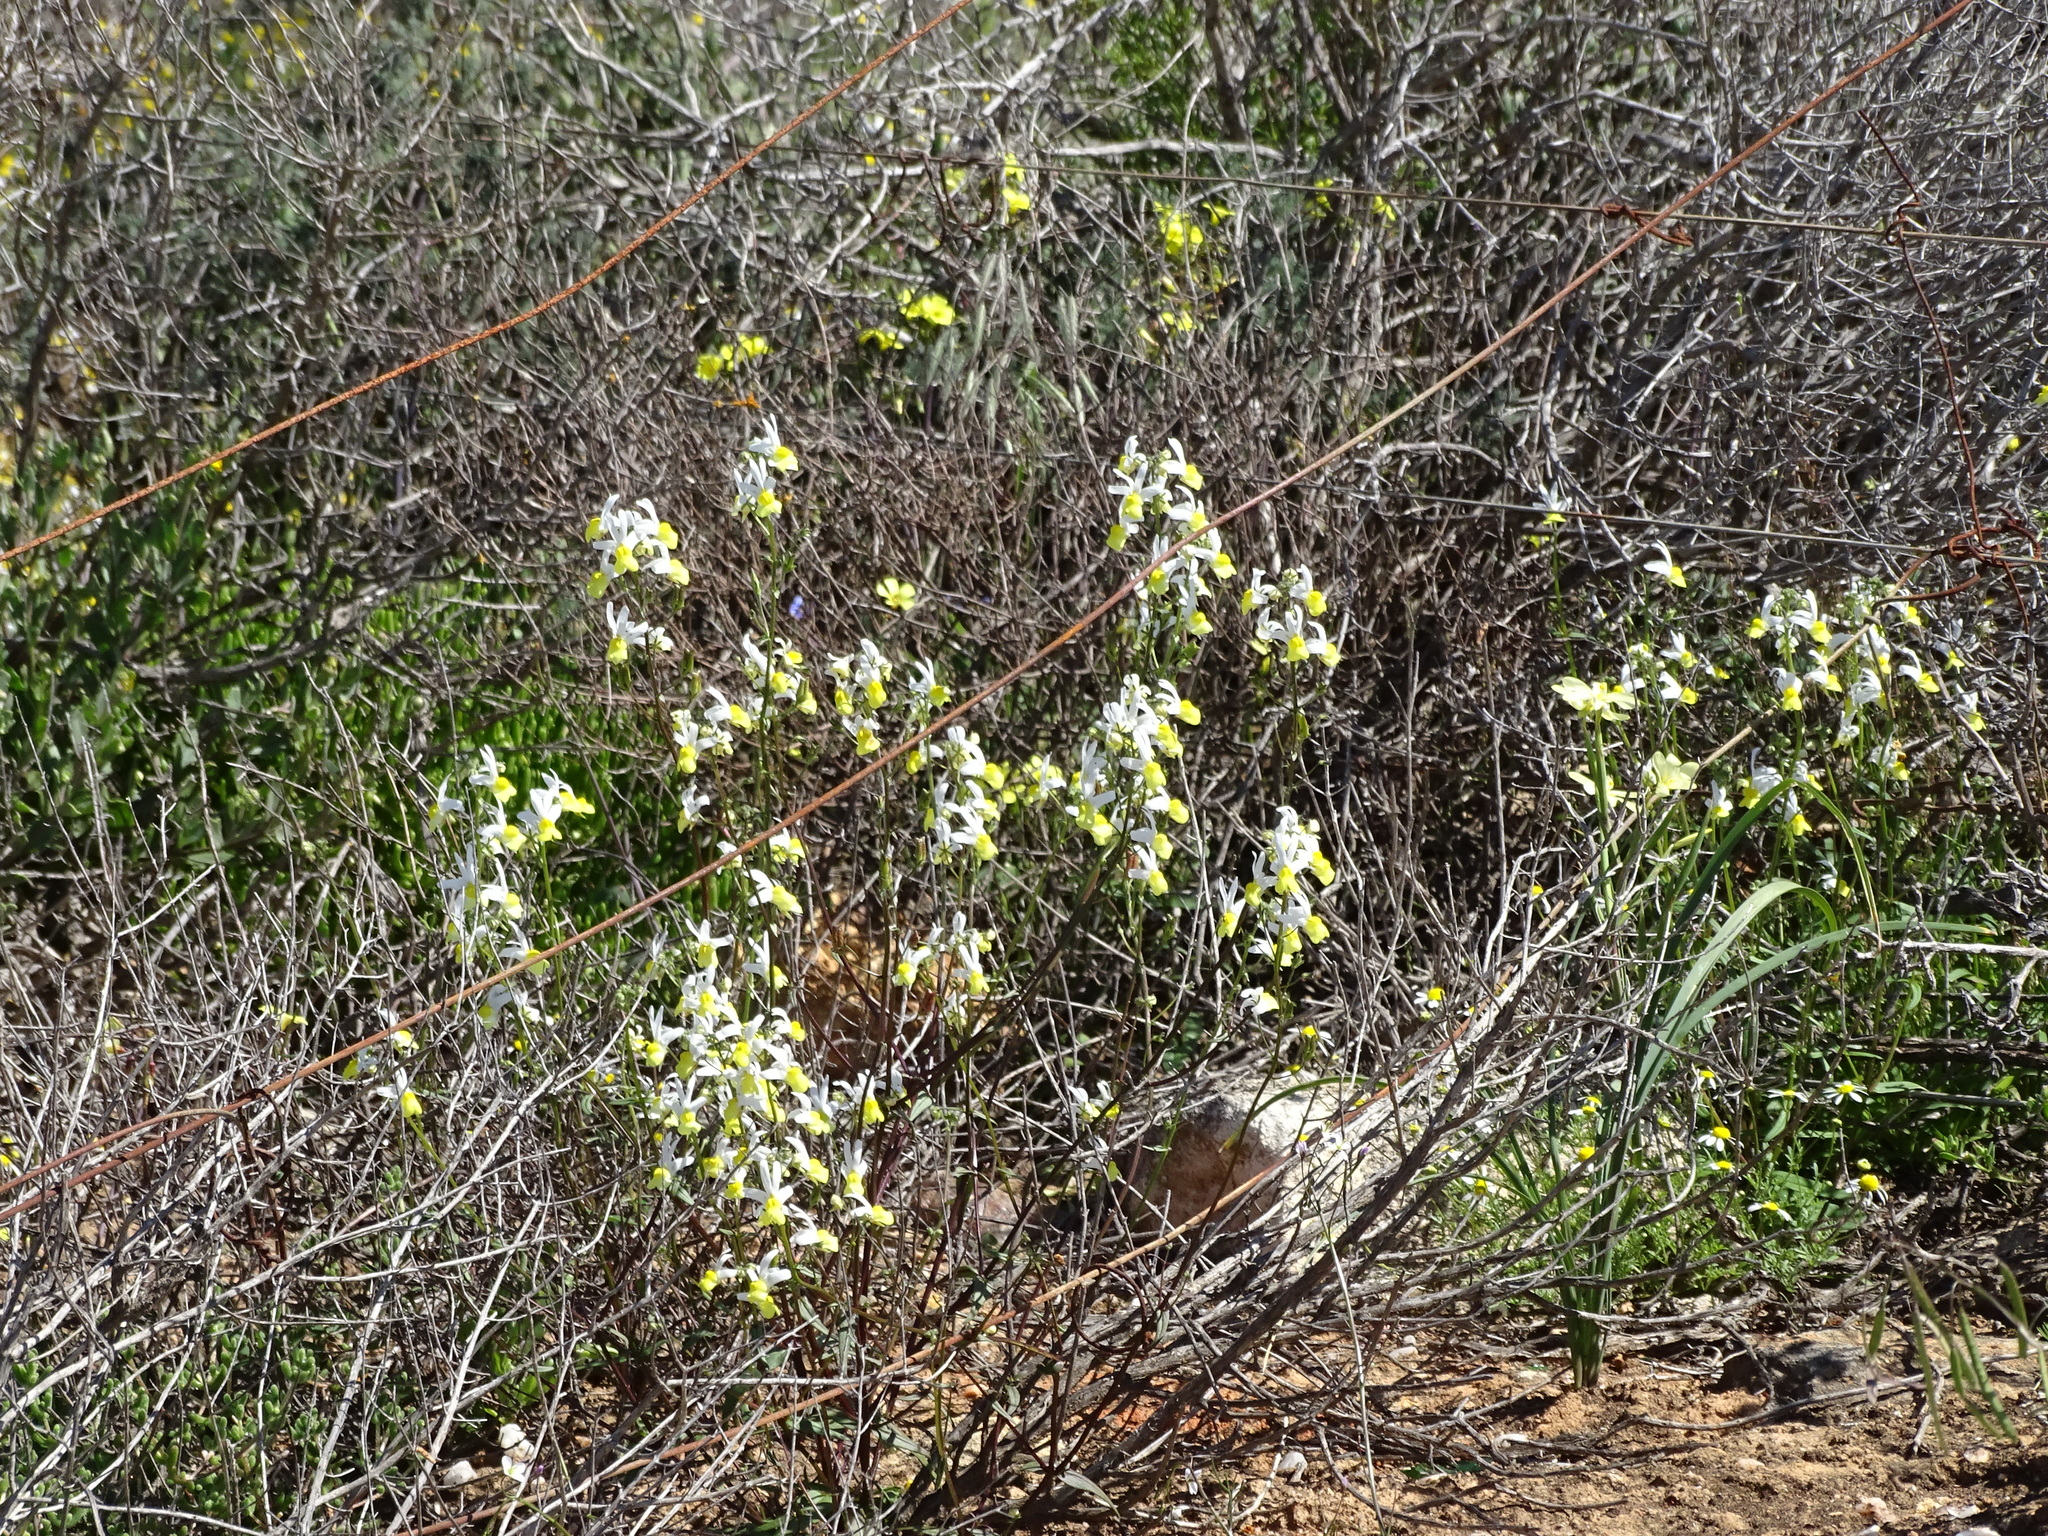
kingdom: Plantae
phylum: Tracheophyta
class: Magnoliopsida
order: Lamiales
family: Scrophulariaceae
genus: Nemesia
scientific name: Nemesia anisocarpa
